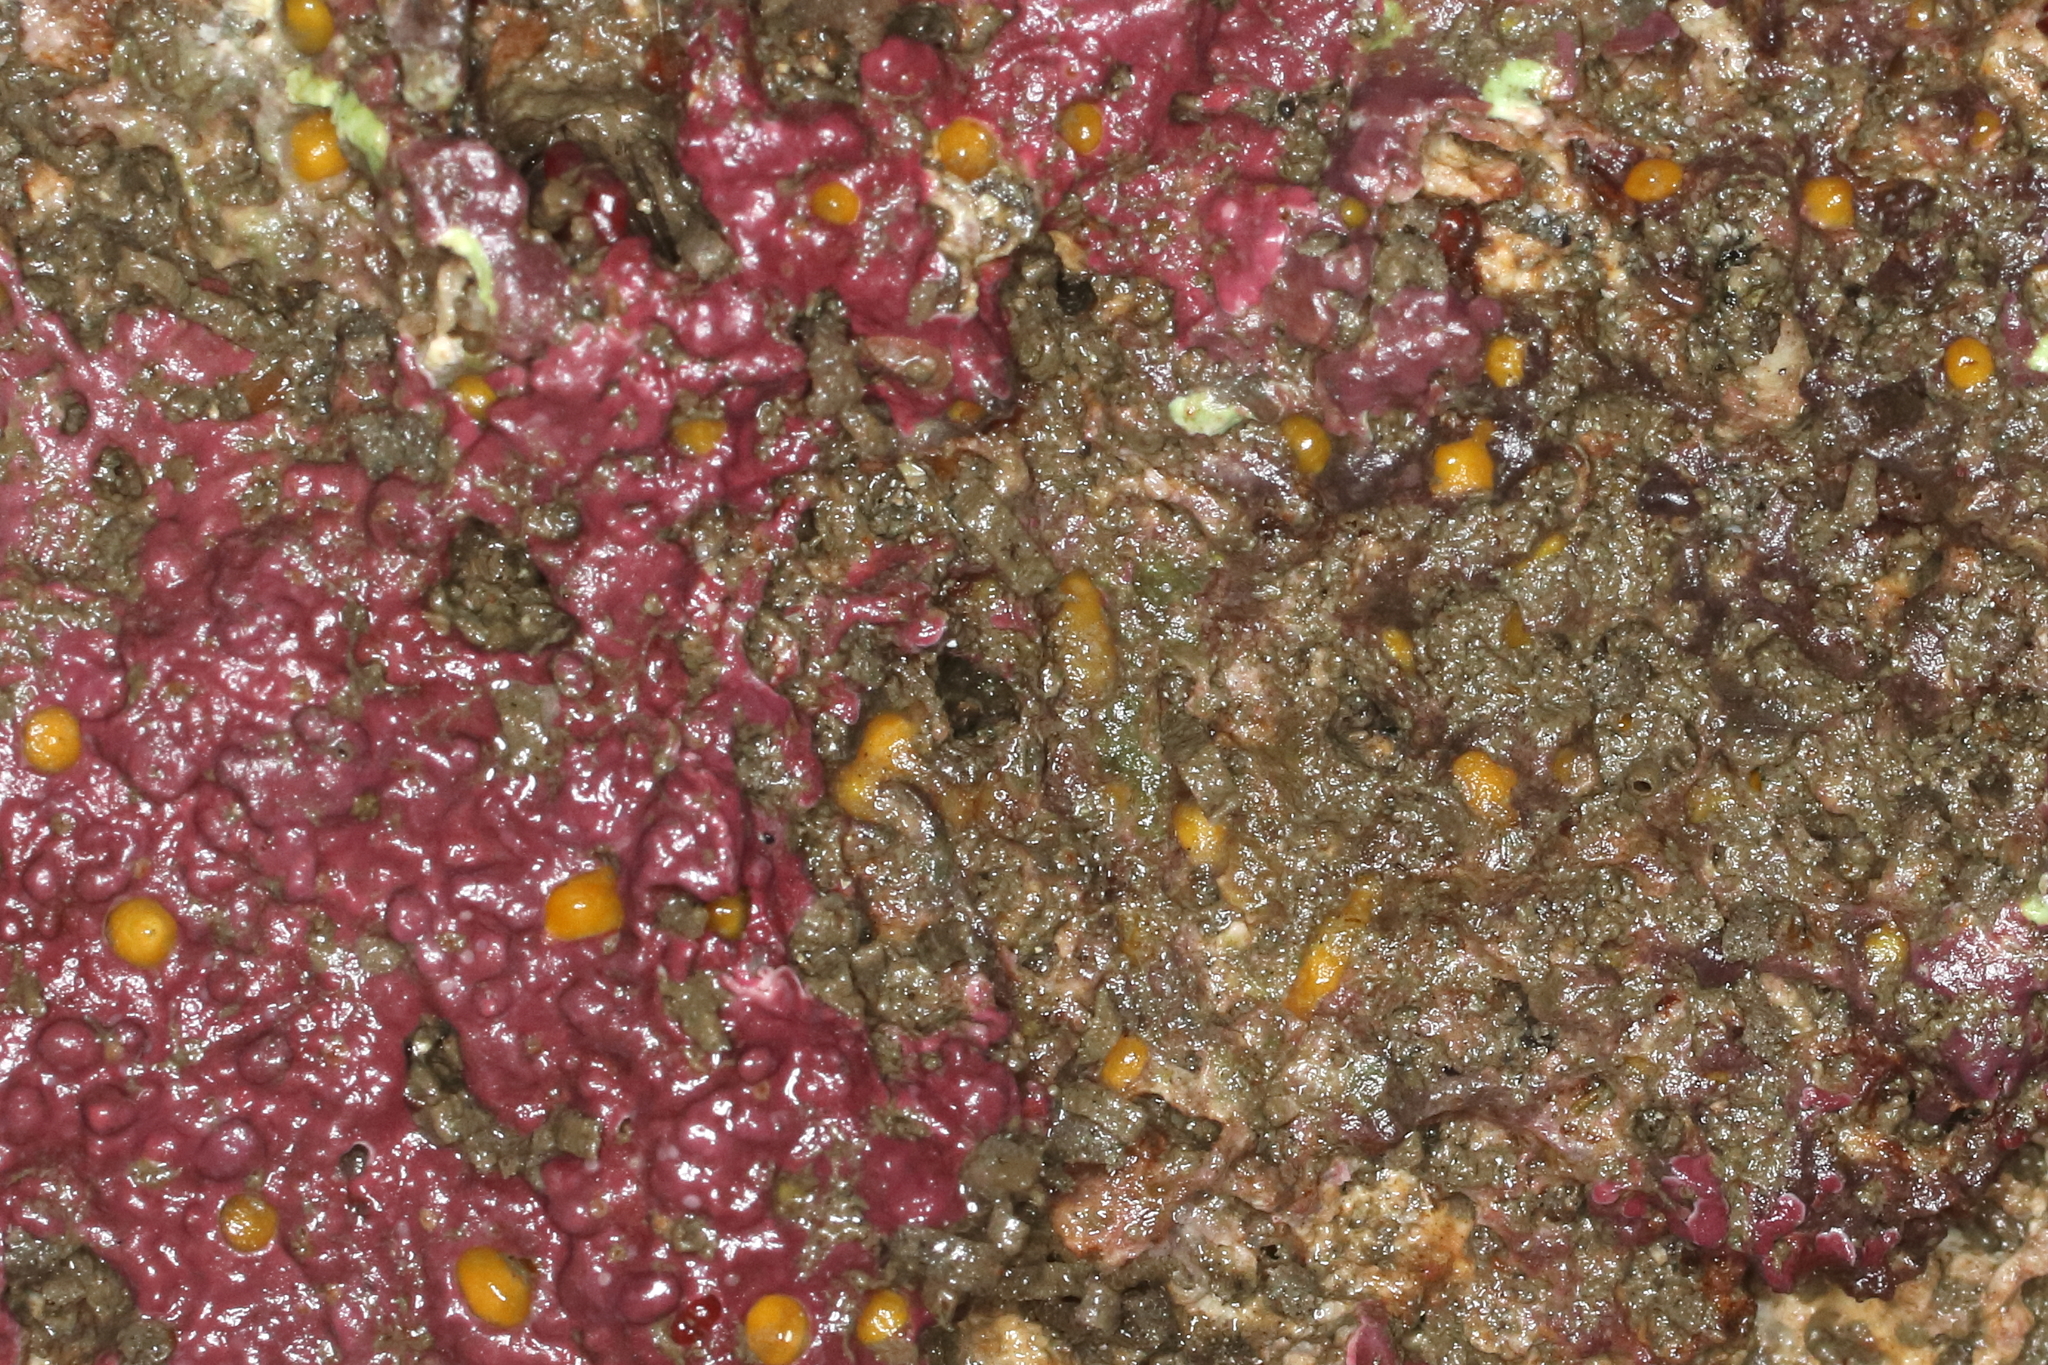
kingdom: Animalia
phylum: Porifera
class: Demospongiae
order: Clionaida
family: Clionaidae
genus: Cliona
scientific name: Cliona californiana
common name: California boring horny sponge
